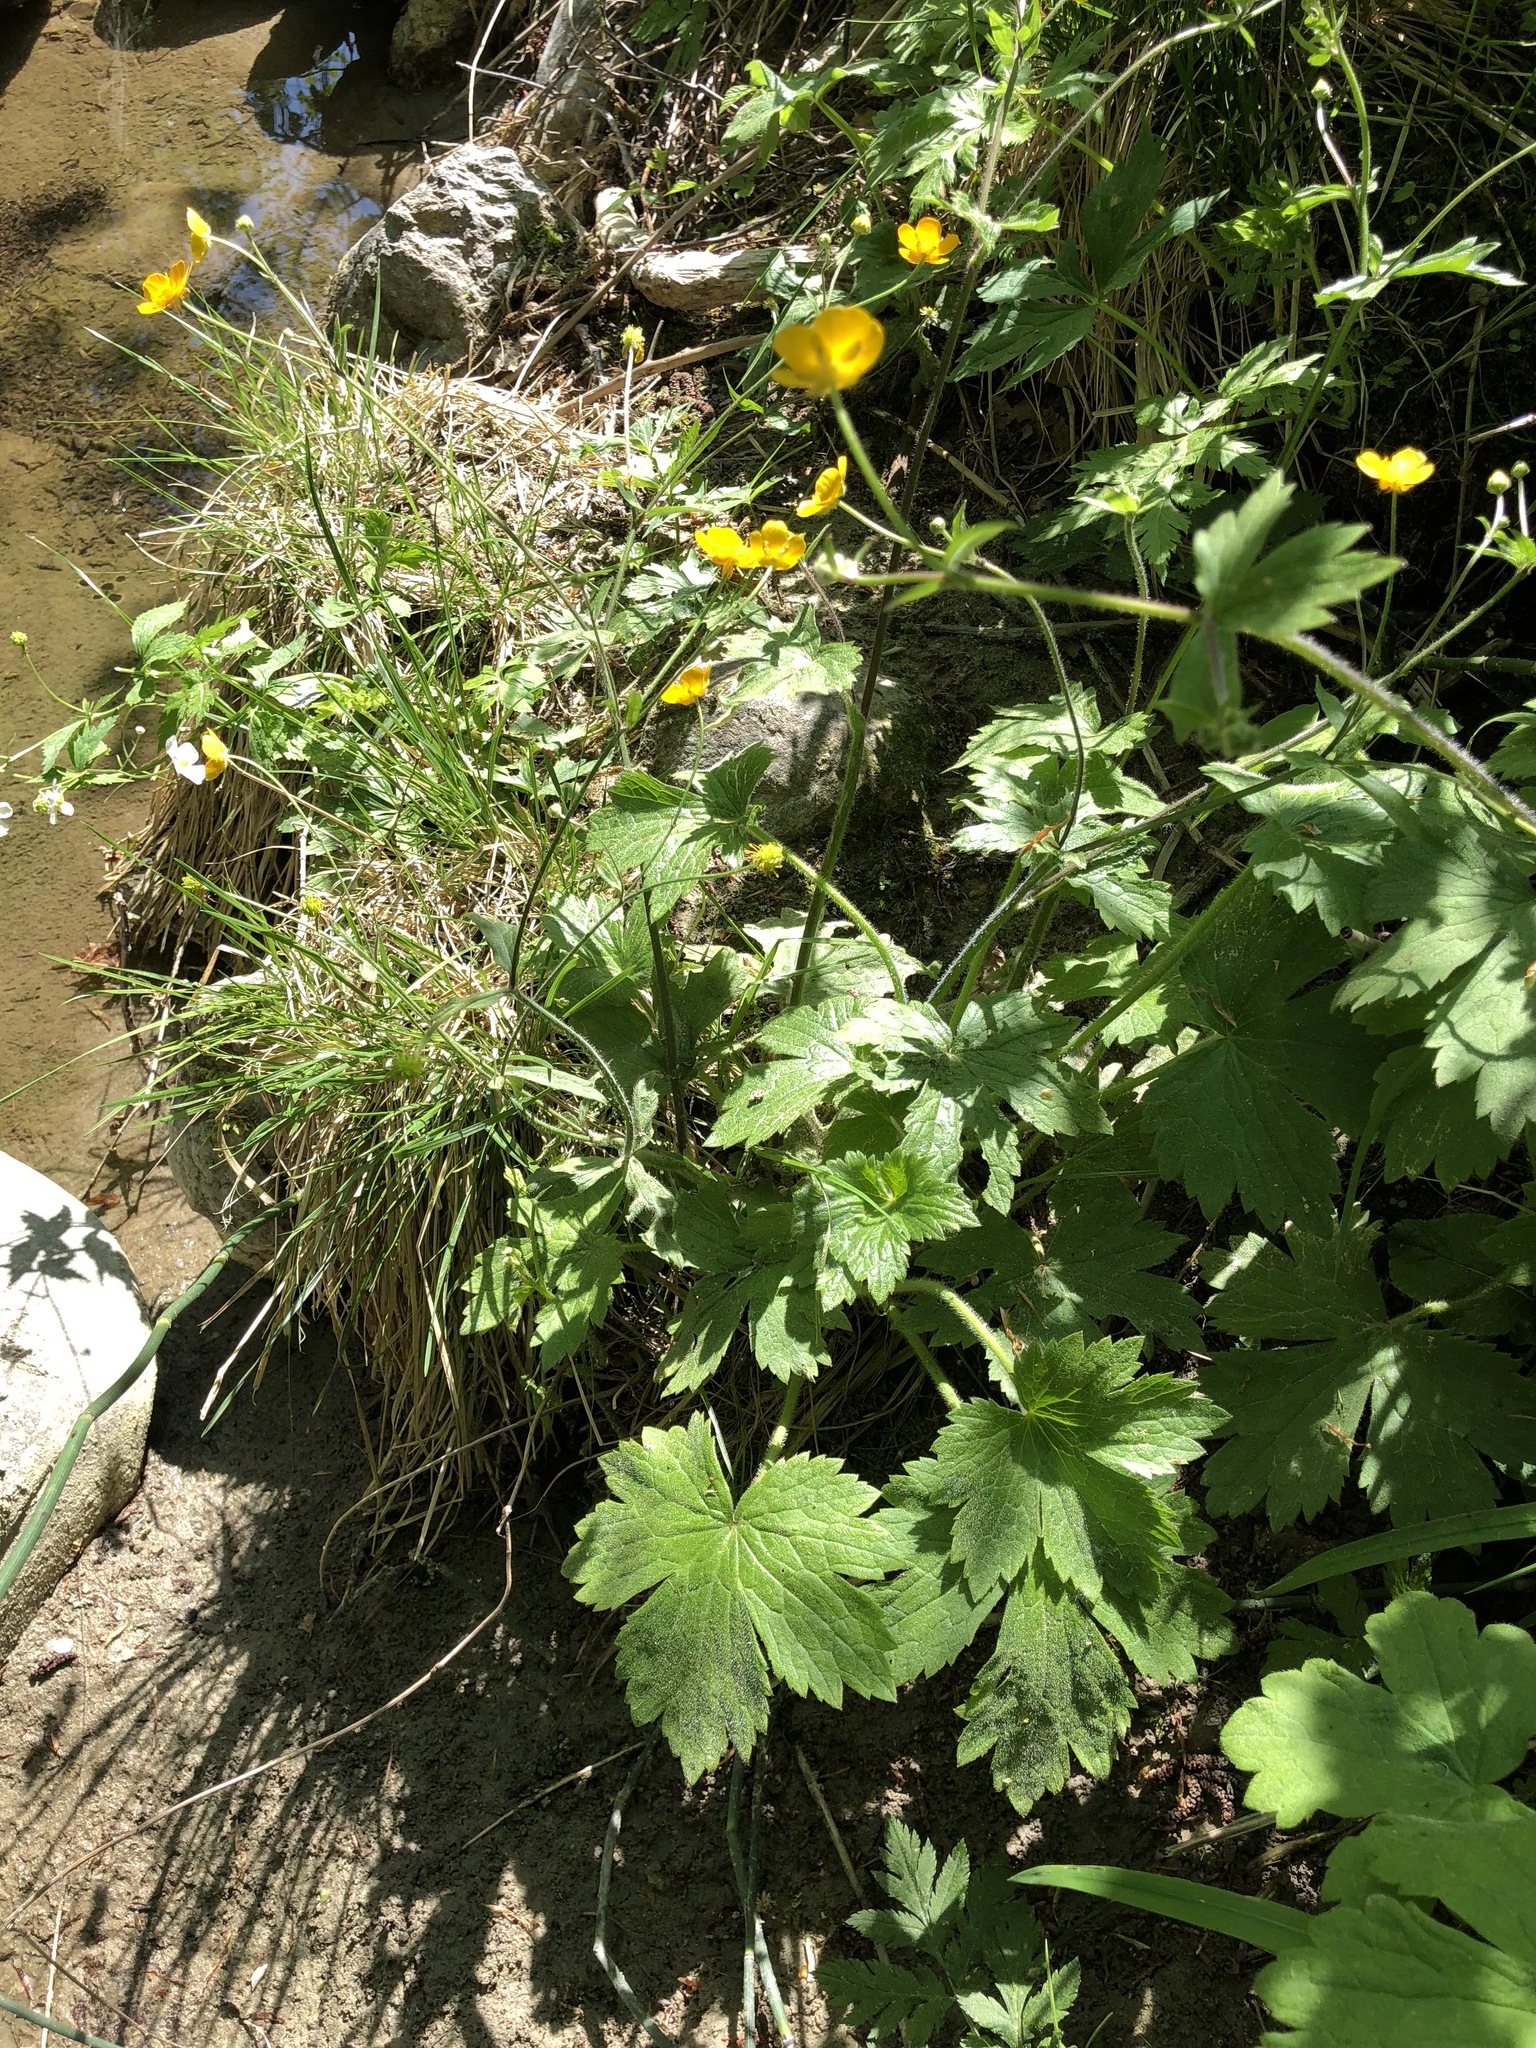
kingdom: Plantae
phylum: Tracheophyta
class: Magnoliopsida
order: Ranunculales
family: Ranunculaceae
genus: Ranunculus
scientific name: Ranunculus lanuginosus
